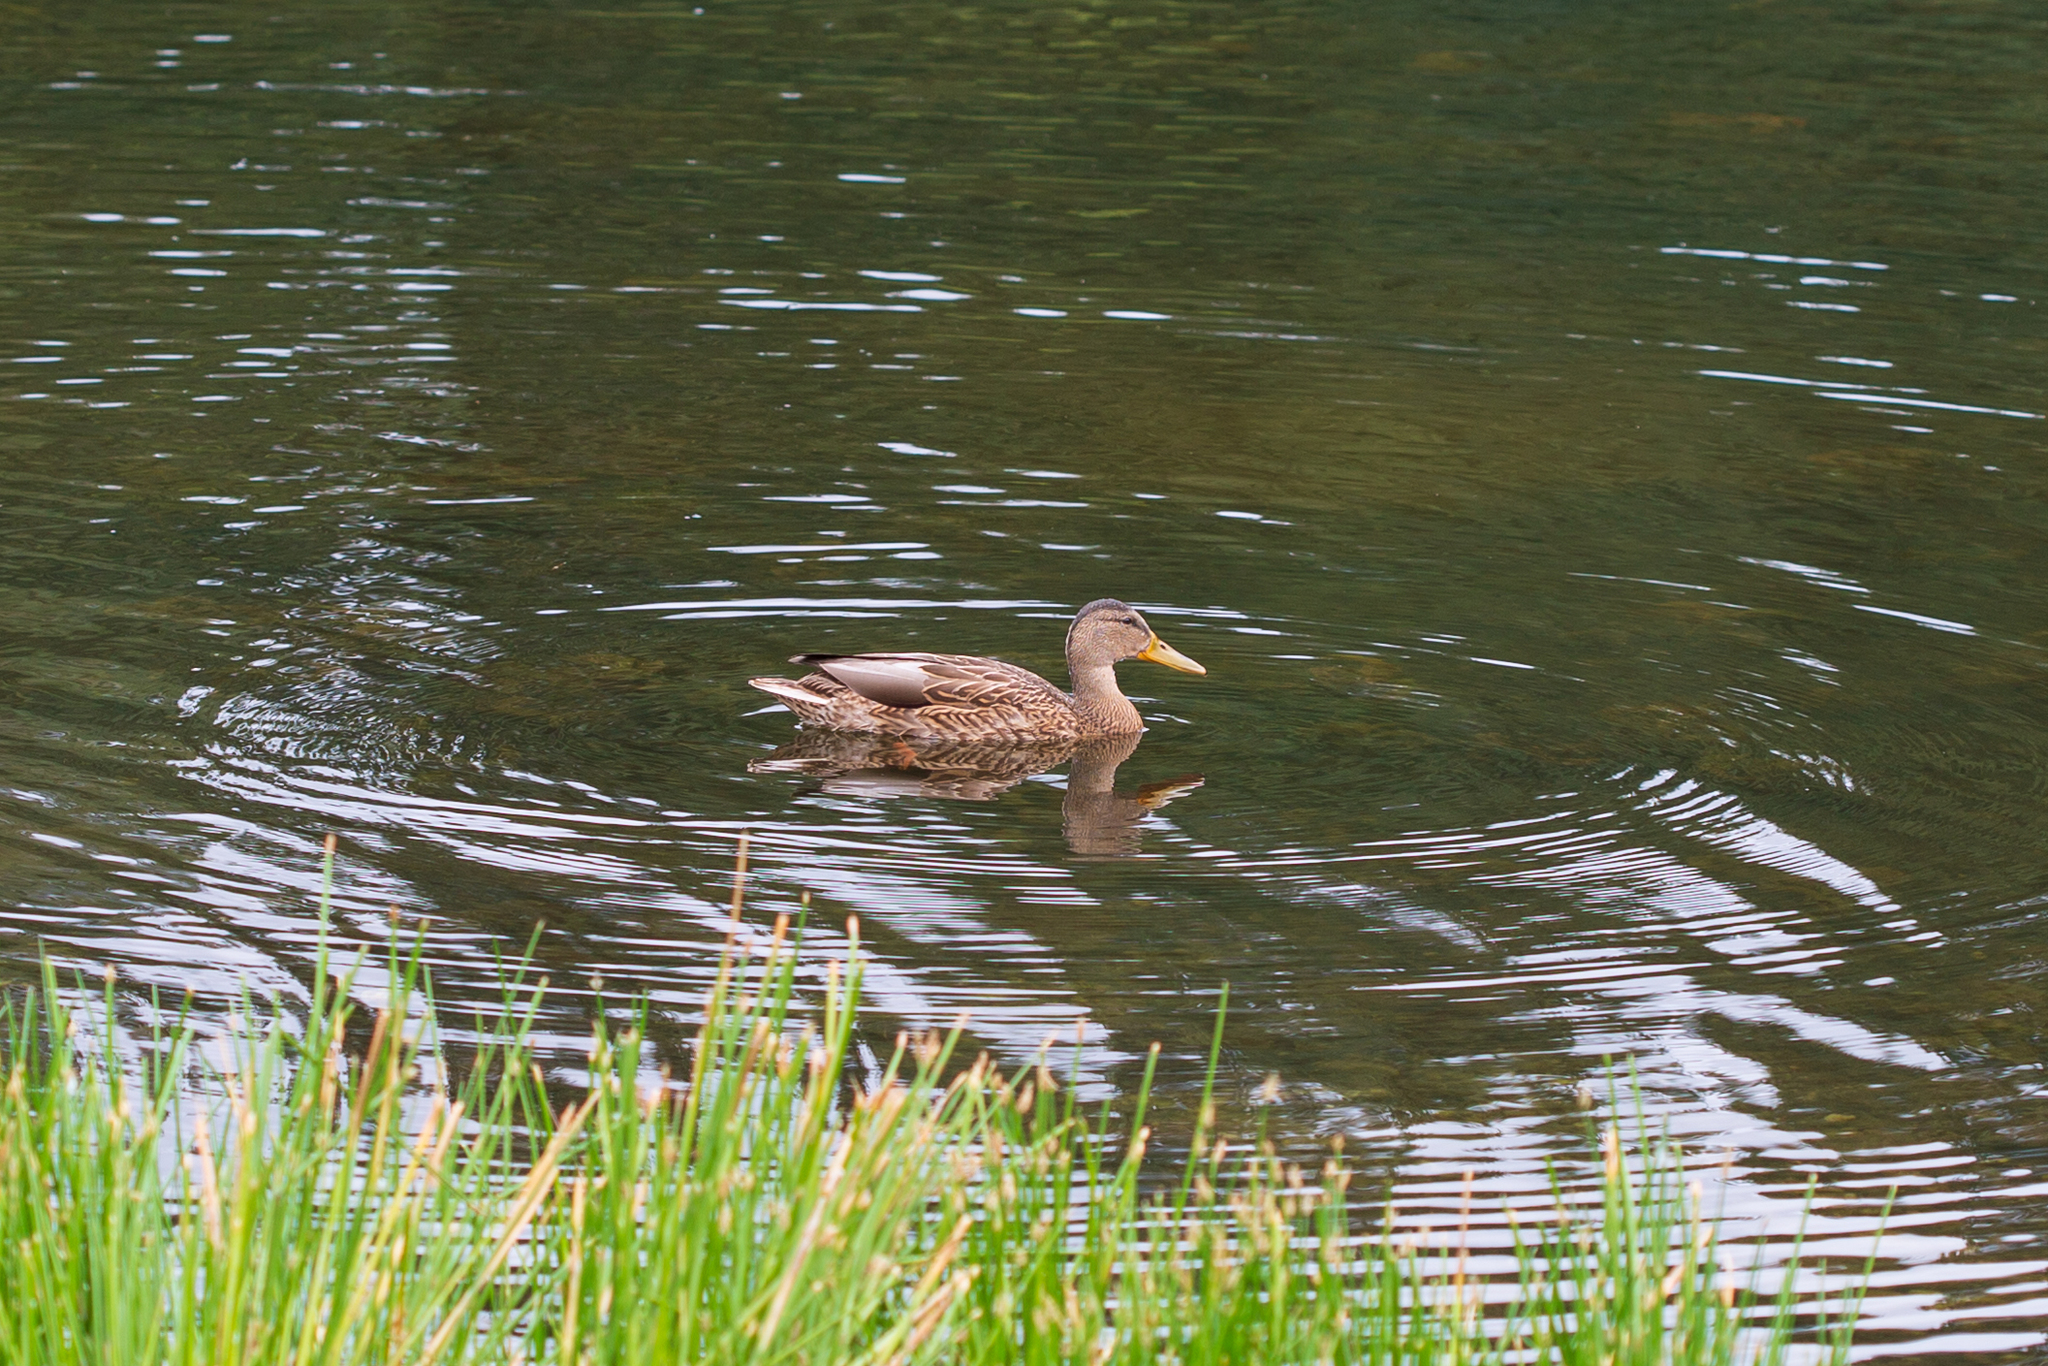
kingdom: Animalia
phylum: Chordata
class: Aves
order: Anseriformes
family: Anatidae
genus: Anas
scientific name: Anas platyrhynchos
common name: Mallard
